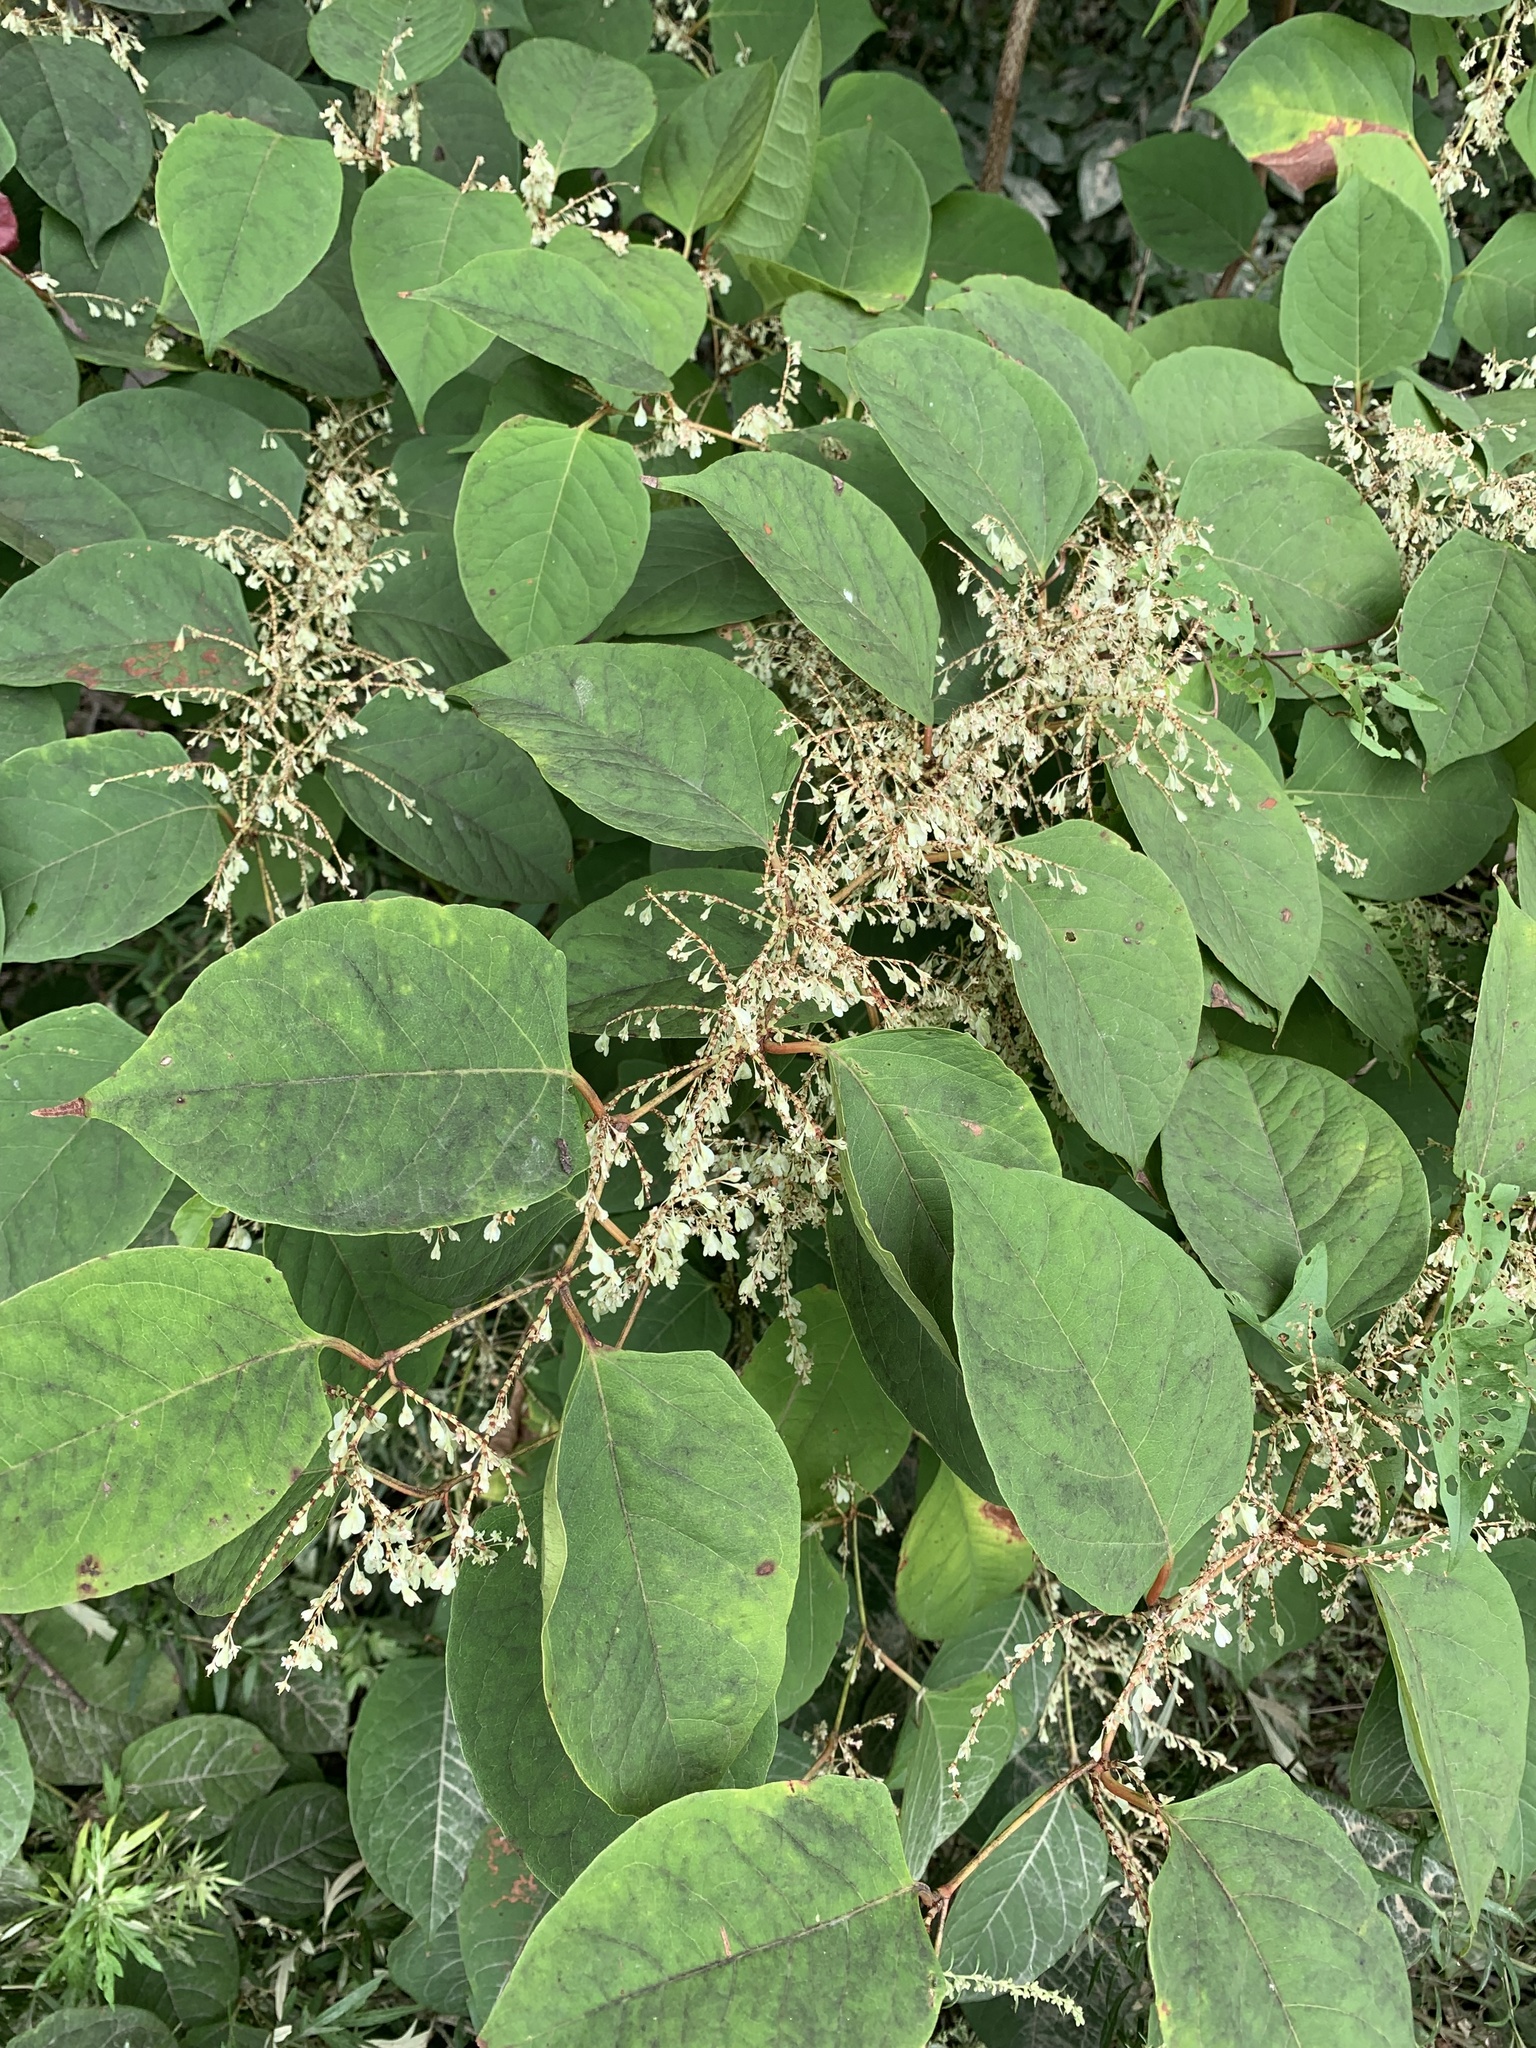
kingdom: Plantae
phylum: Tracheophyta
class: Magnoliopsida
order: Caryophyllales
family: Polygonaceae
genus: Reynoutria
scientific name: Reynoutria japonica
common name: Japanese knotweed
